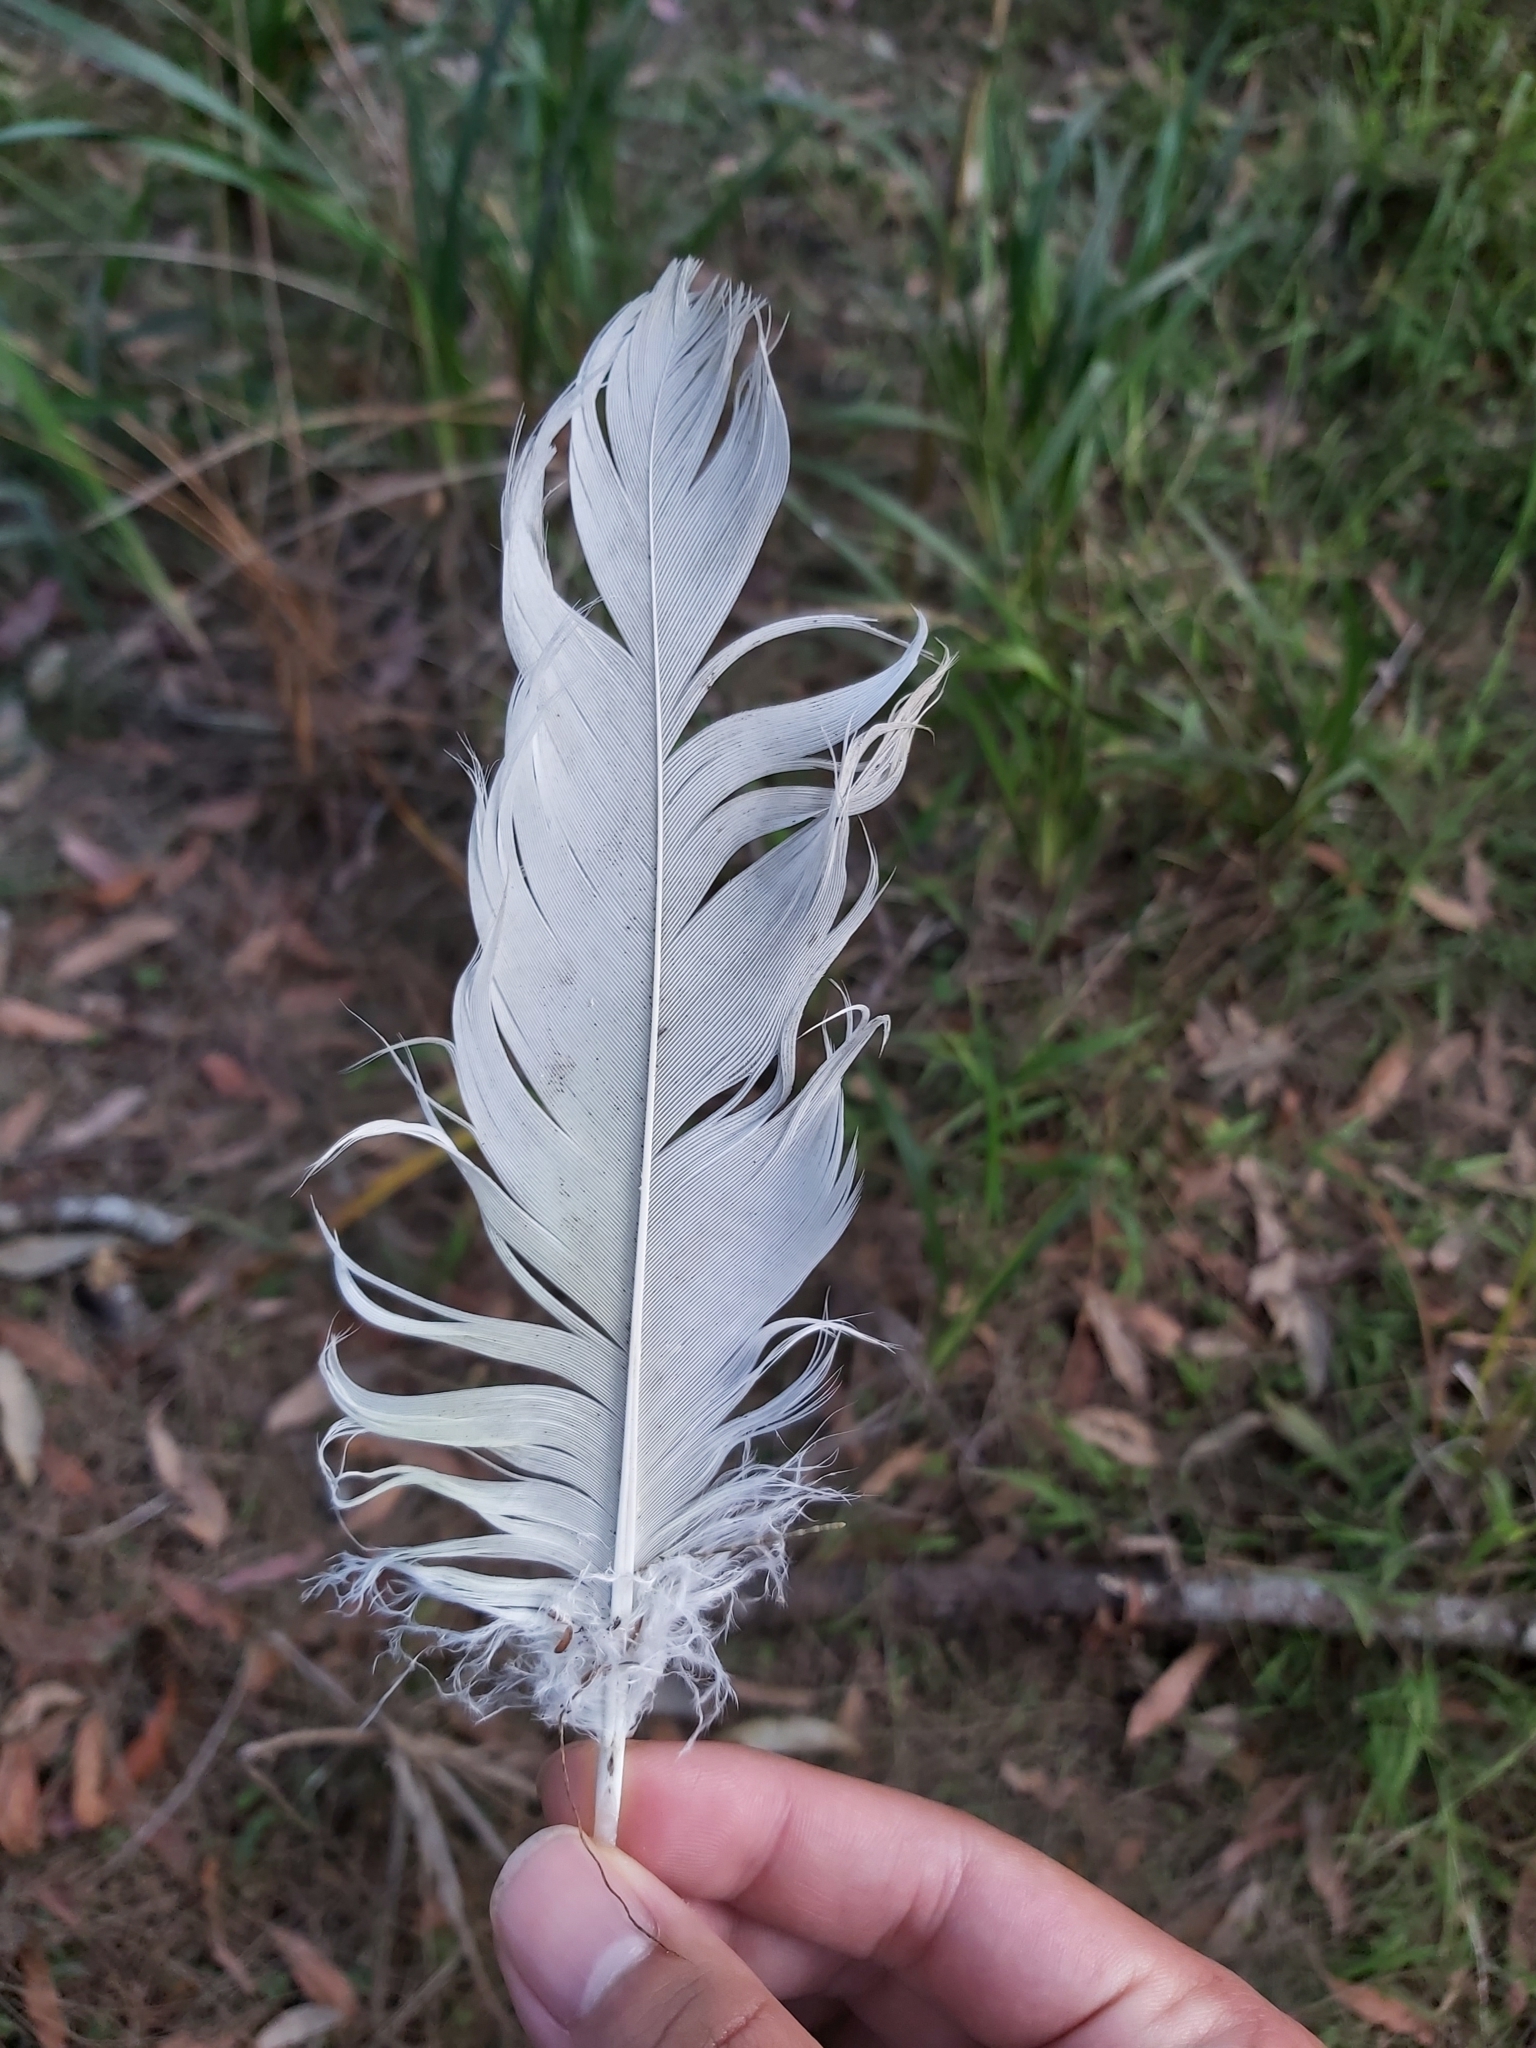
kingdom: Animalia
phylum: Chordata
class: Aves
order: Psittaciformes
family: Psittacidae
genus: Cacatua
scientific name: Cacatua galerita
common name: Sulphur-crested cockatoo
